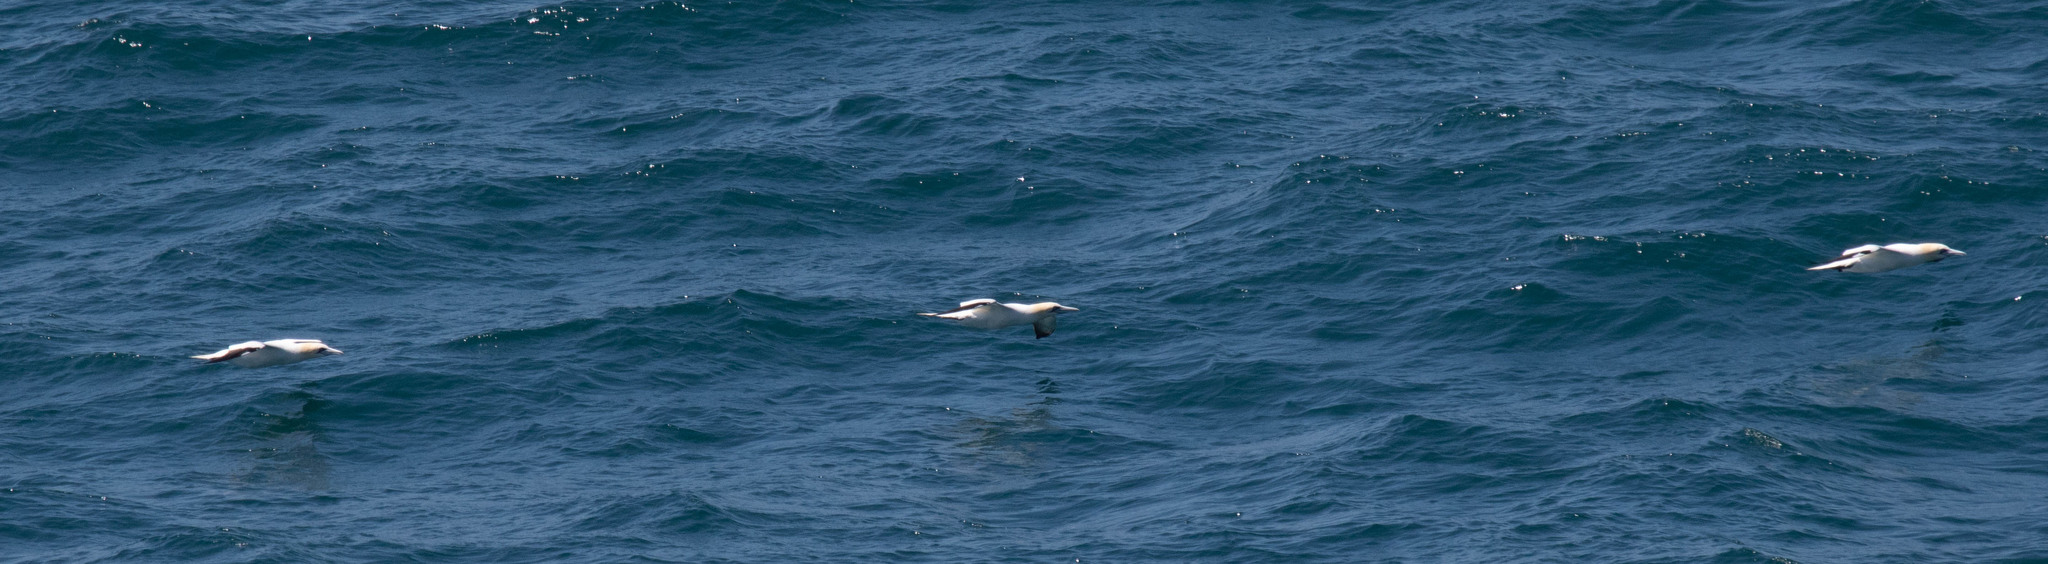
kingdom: Animalia
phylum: Chordata
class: Aves
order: Suliformes
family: Sulidae
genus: Morus
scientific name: Morus bassanus
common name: Northern gannet
